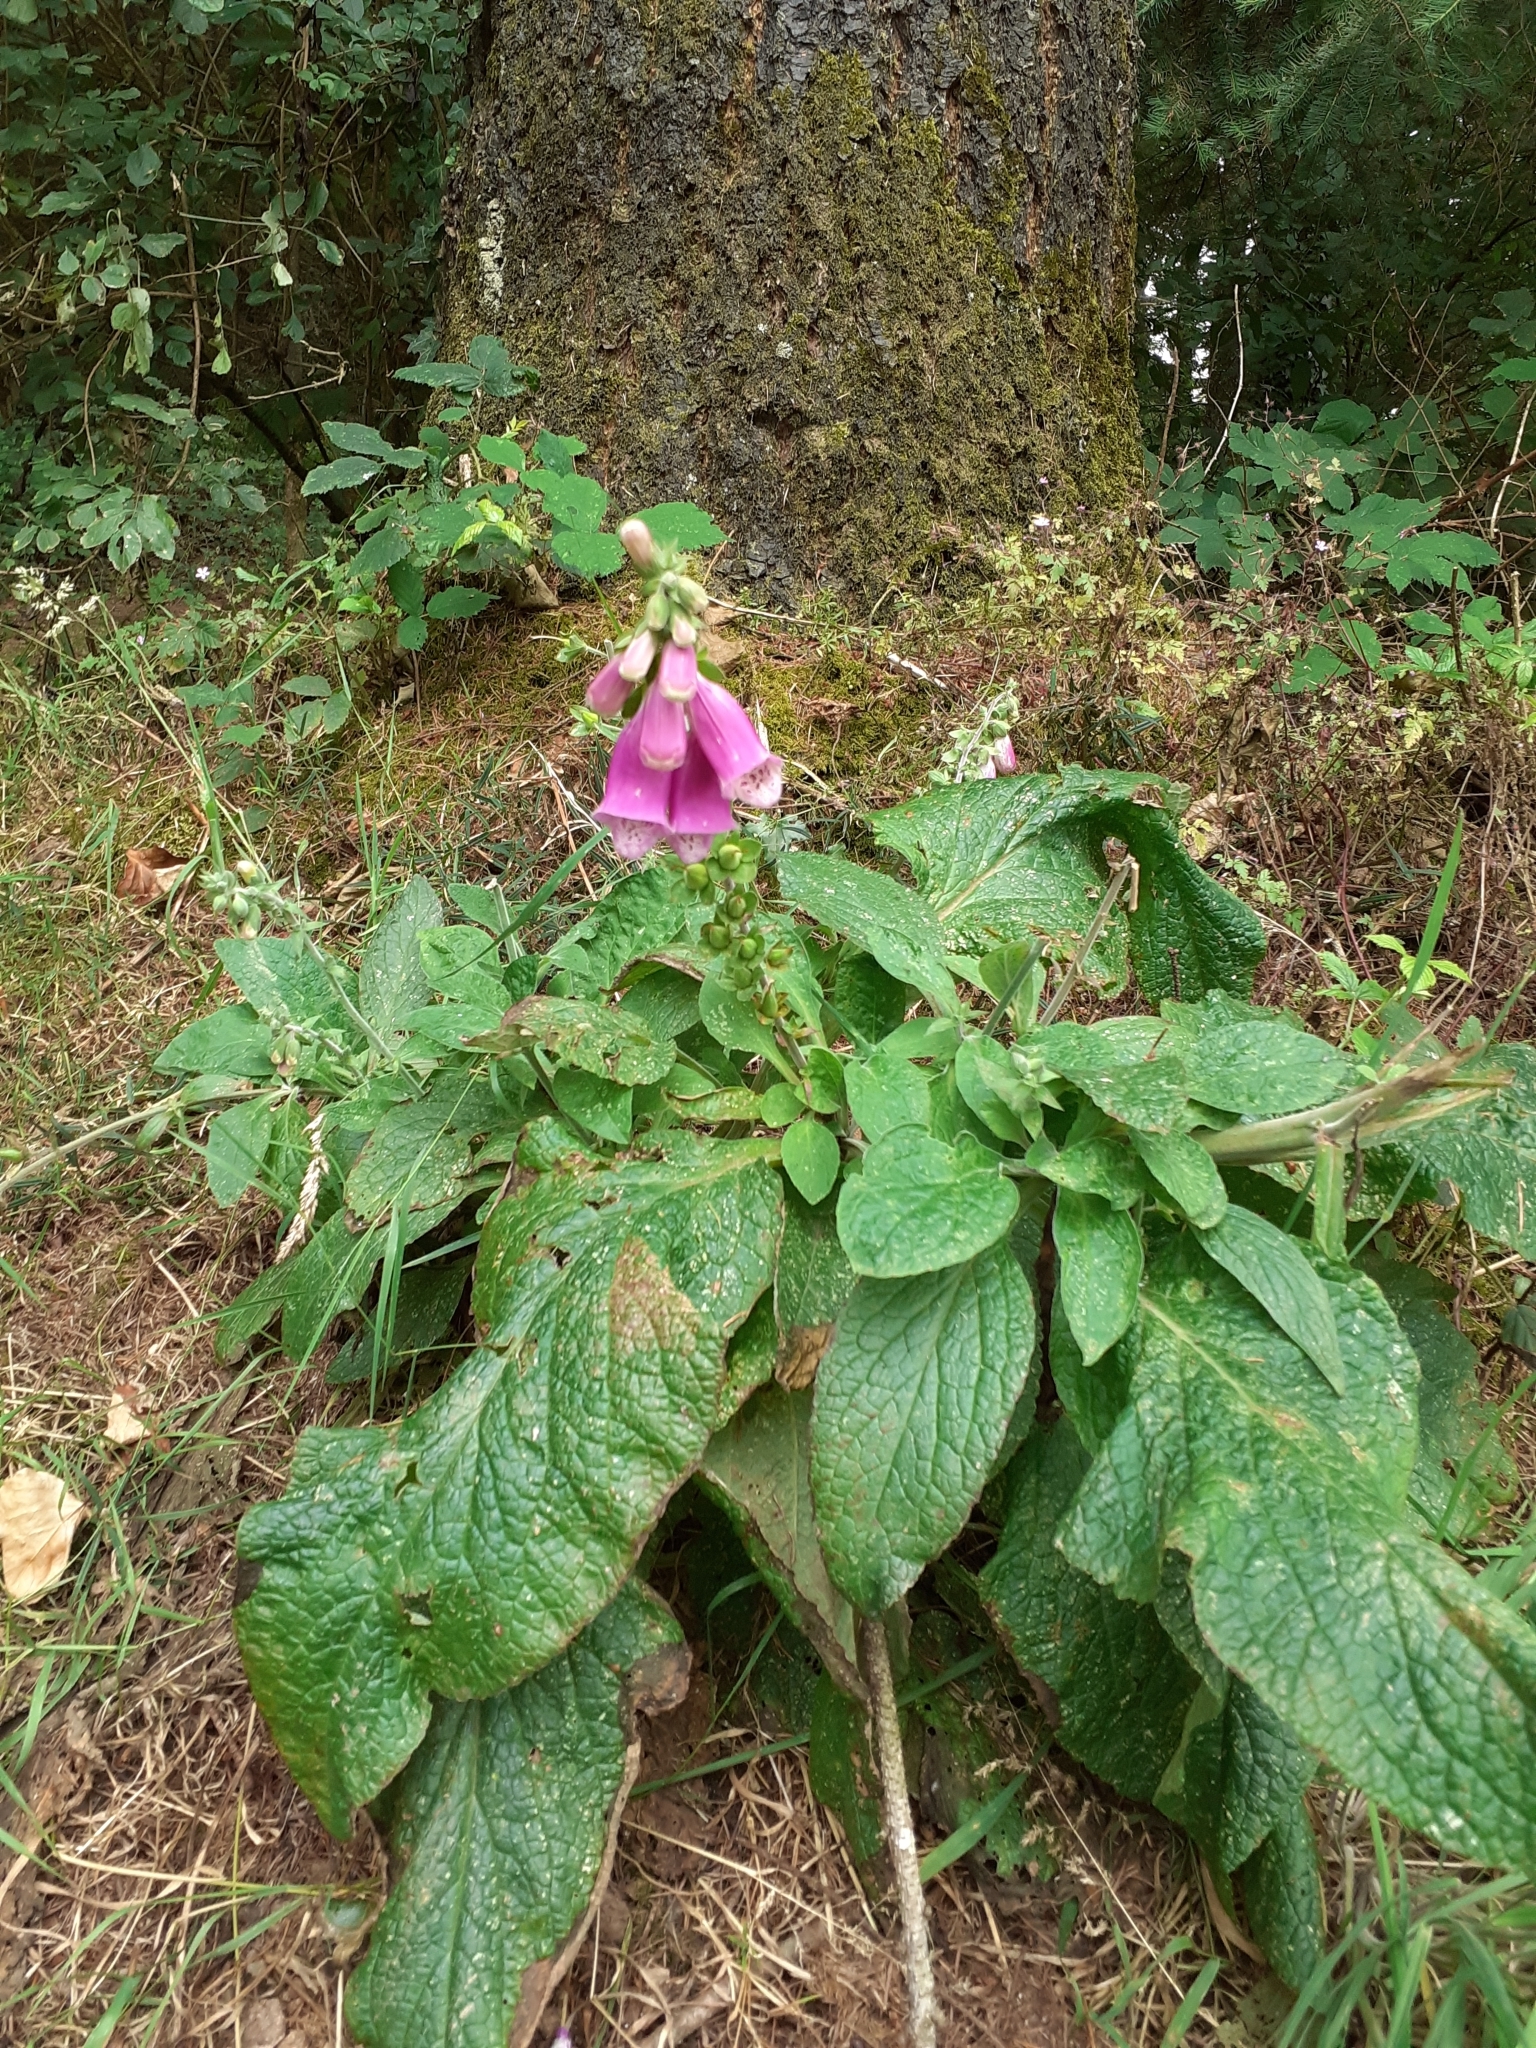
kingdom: Plantae
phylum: Tracheophyta
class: Magnoliopsida
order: Lamiales
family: Plantaginaceae
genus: Digitalis
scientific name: Digitalis purpurea
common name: Foxglove
